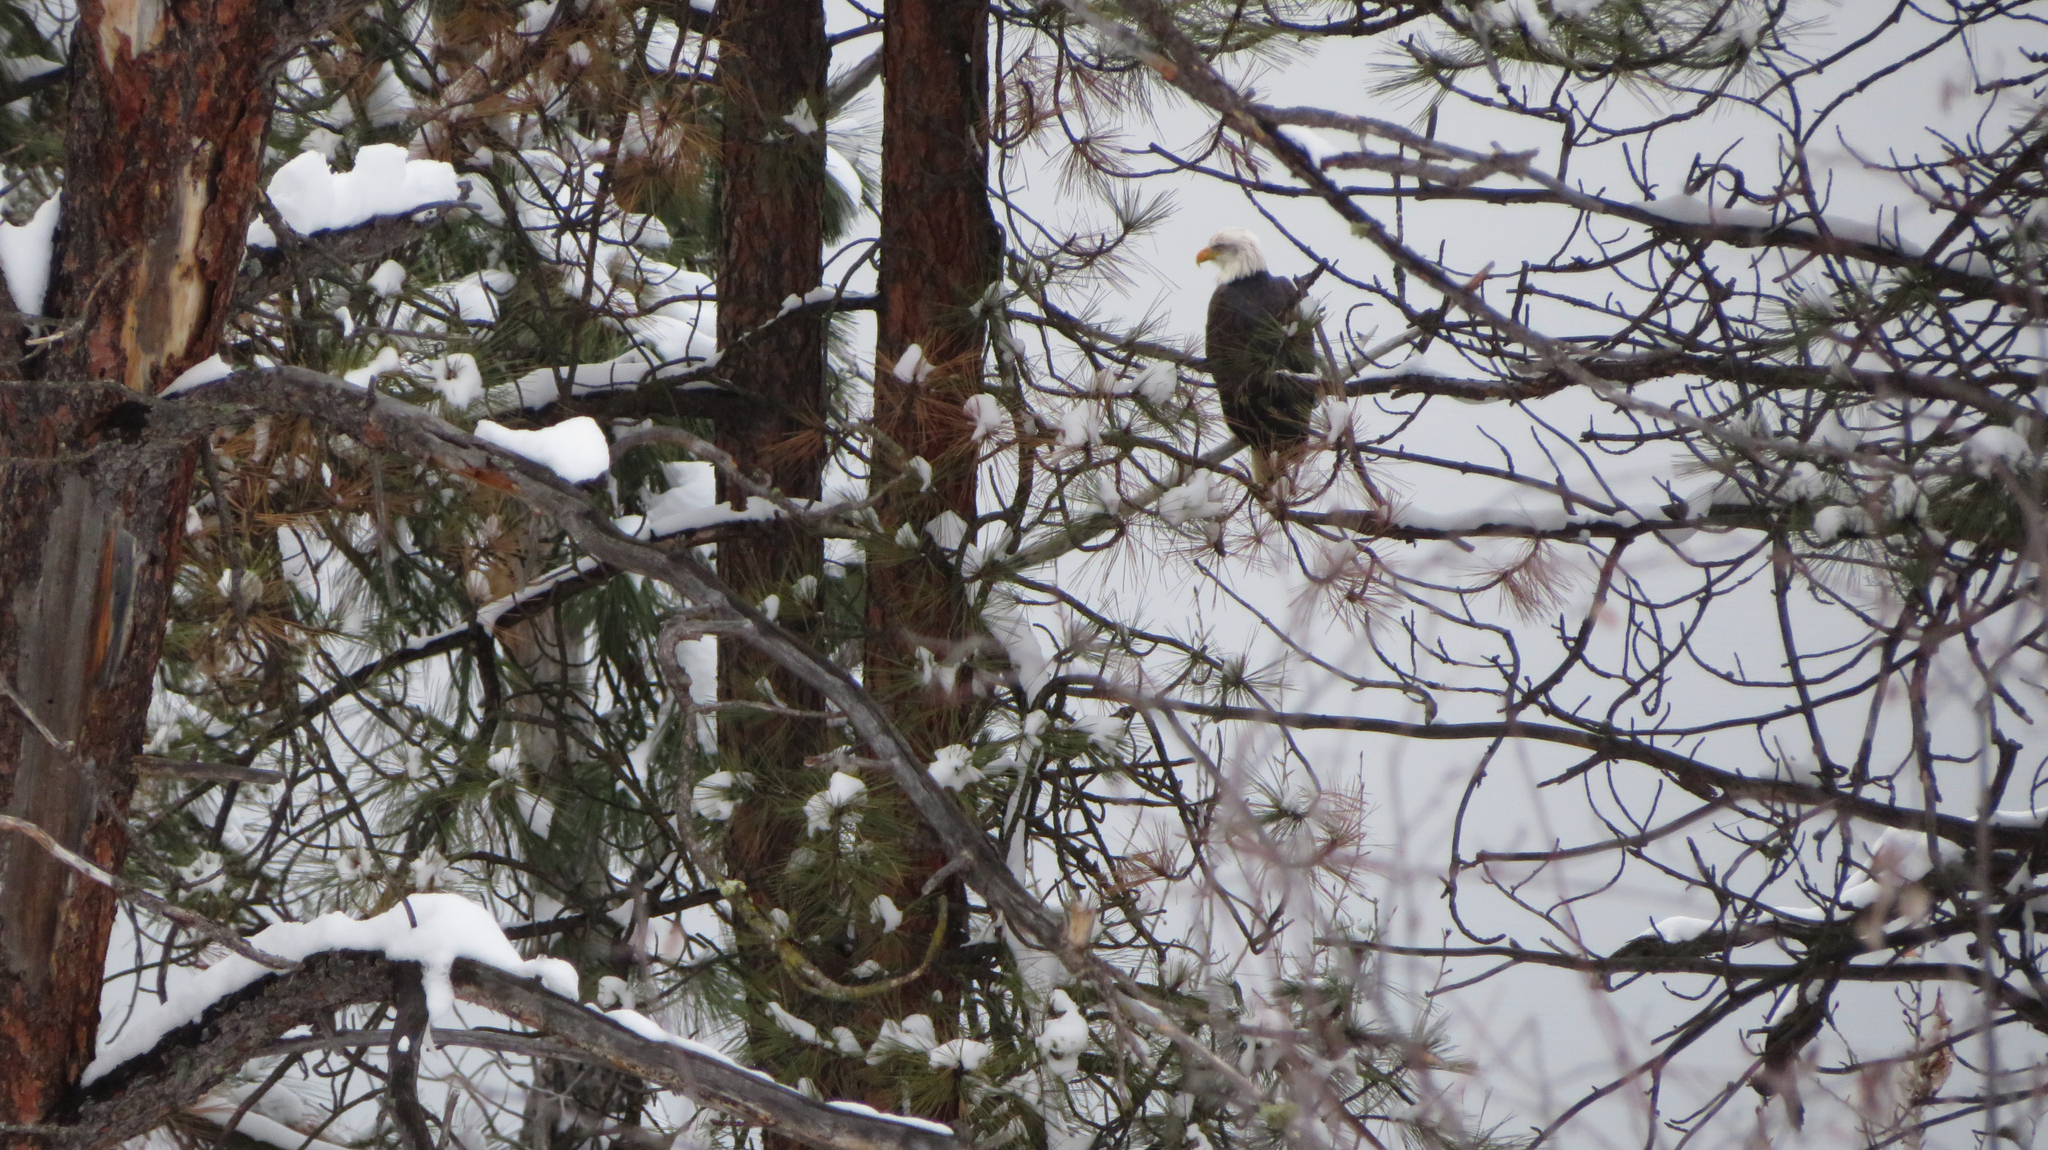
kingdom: Animalia
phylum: Chordata
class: Aves
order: Accipitriformes
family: Accipitridae
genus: Haliaeetus
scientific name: Haliaeetus leucocephalus
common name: Bald eagle
